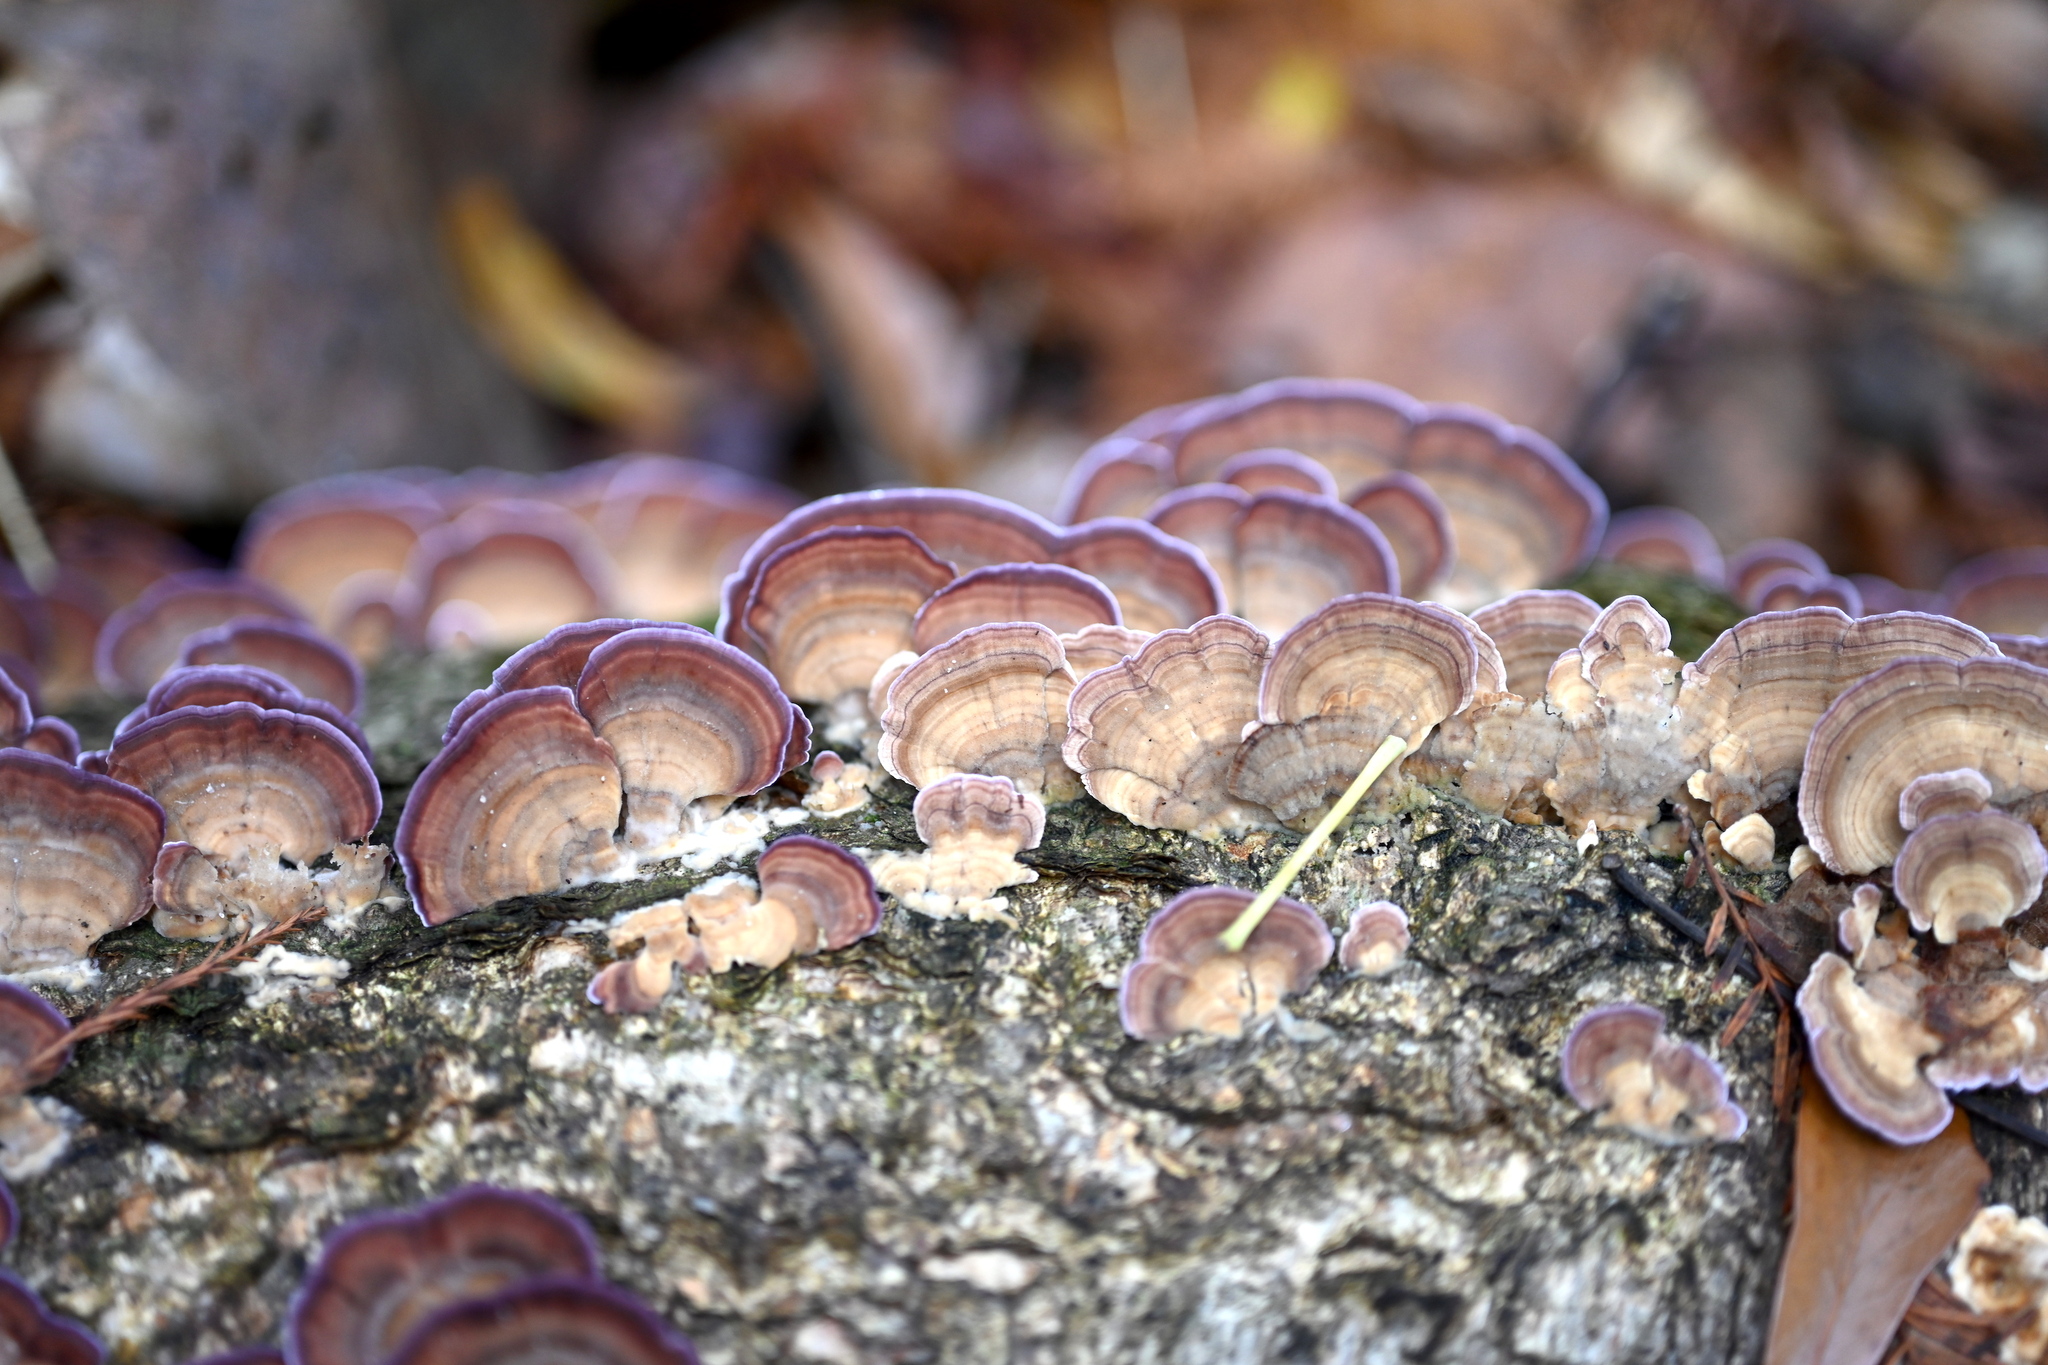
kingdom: Fungi
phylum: Basidiomycota
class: Agaricomycetes
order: Hymenochaetales
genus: Trichaptum
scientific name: Trichaptum biforme
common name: Violet-toothed polypore
